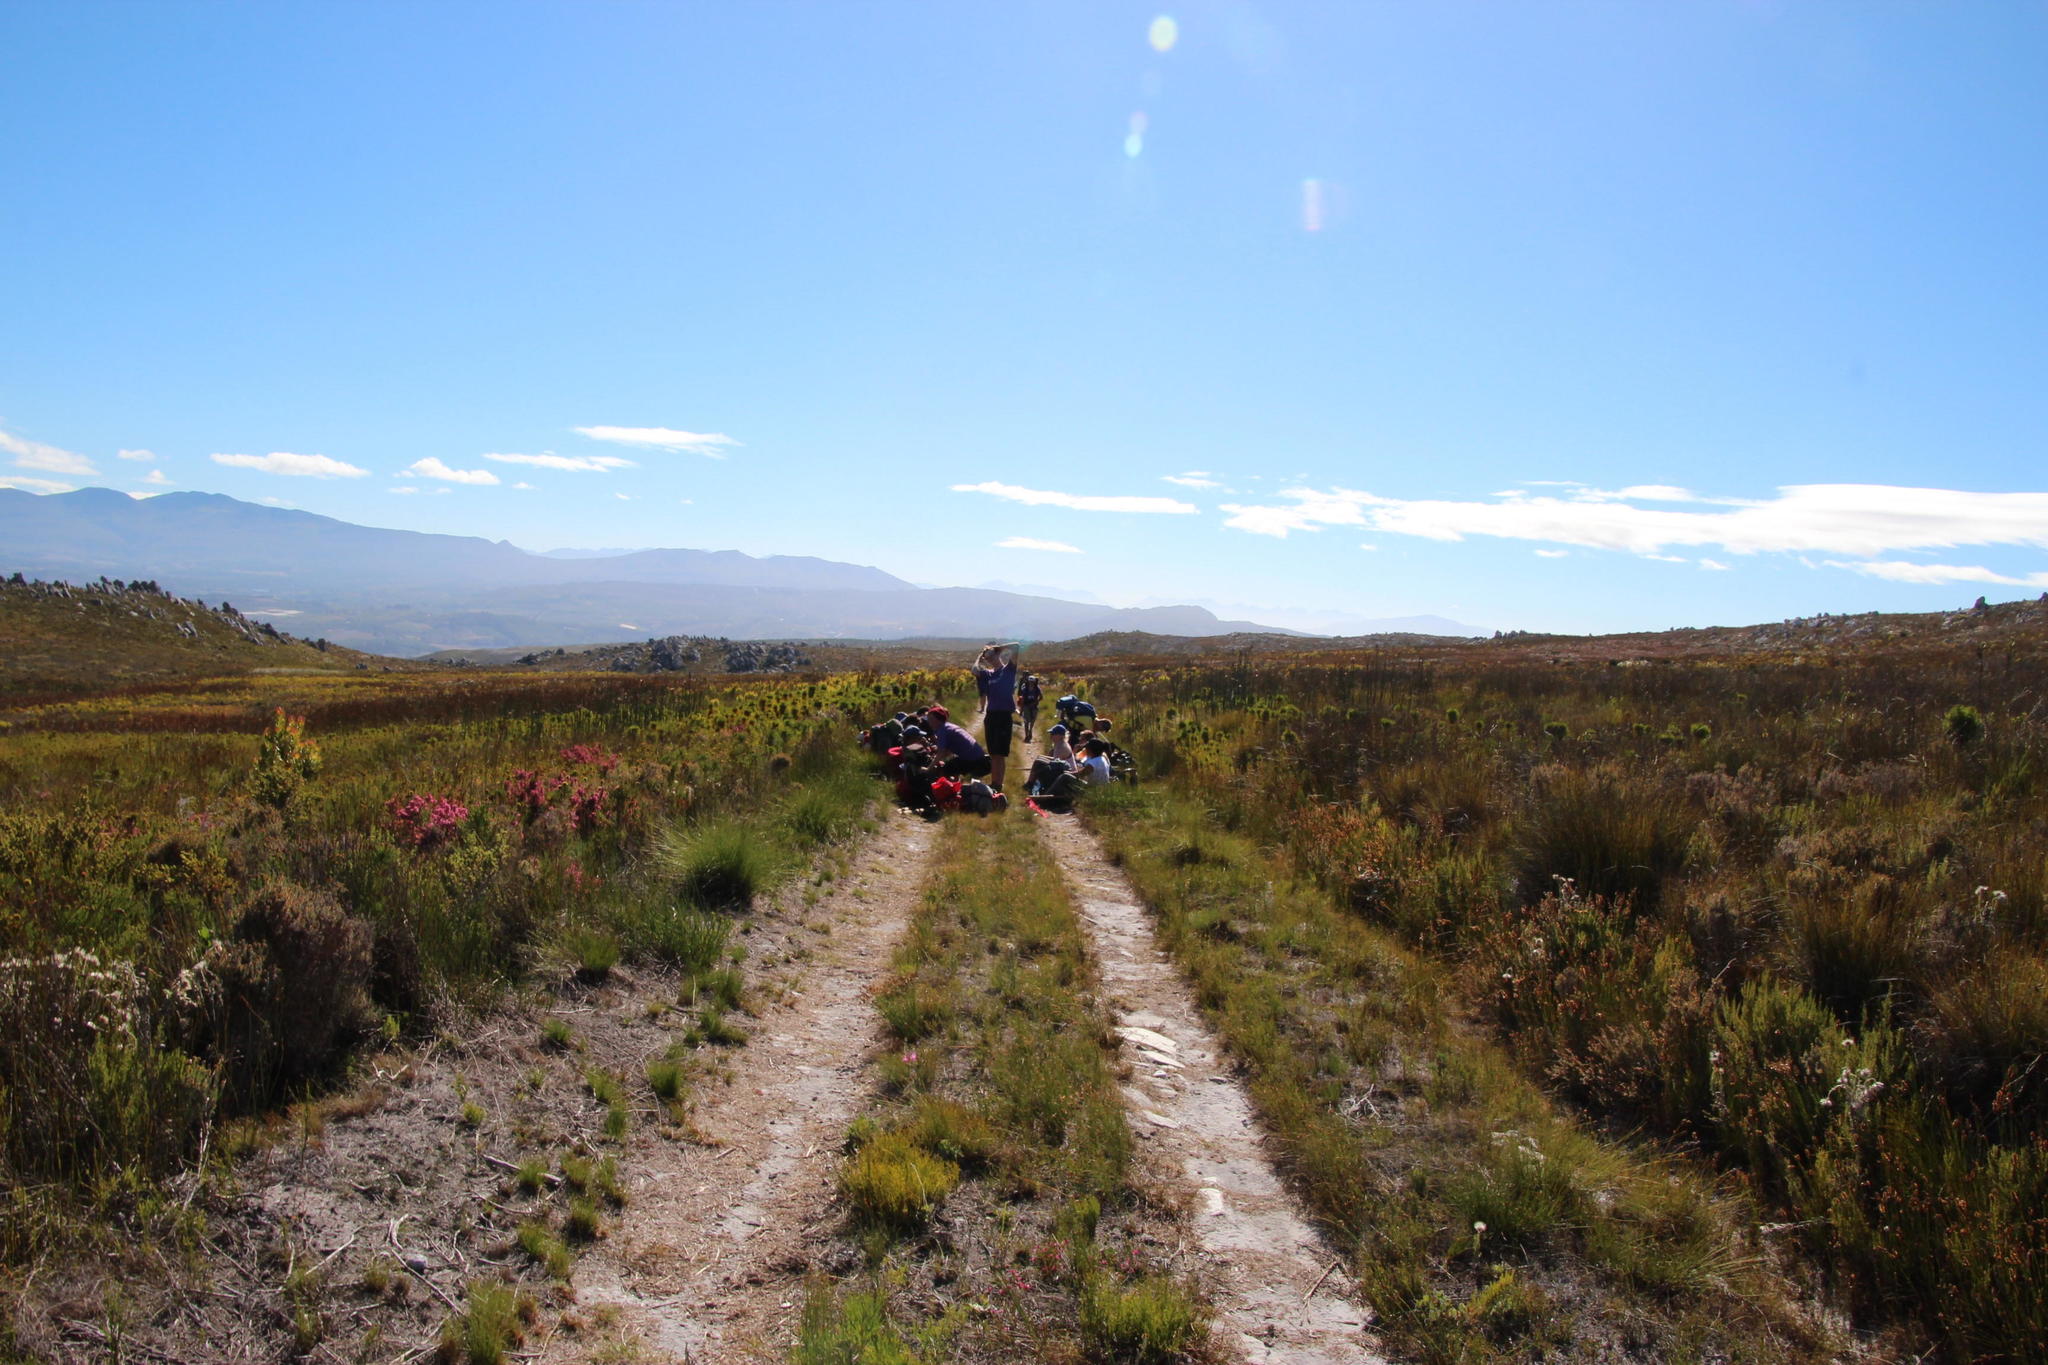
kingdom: Plantae
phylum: Tracheophyta
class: Magnoliopsida
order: Bruniales
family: Bruniaceae
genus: Berzelia
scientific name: Berzelia alopecurioides
